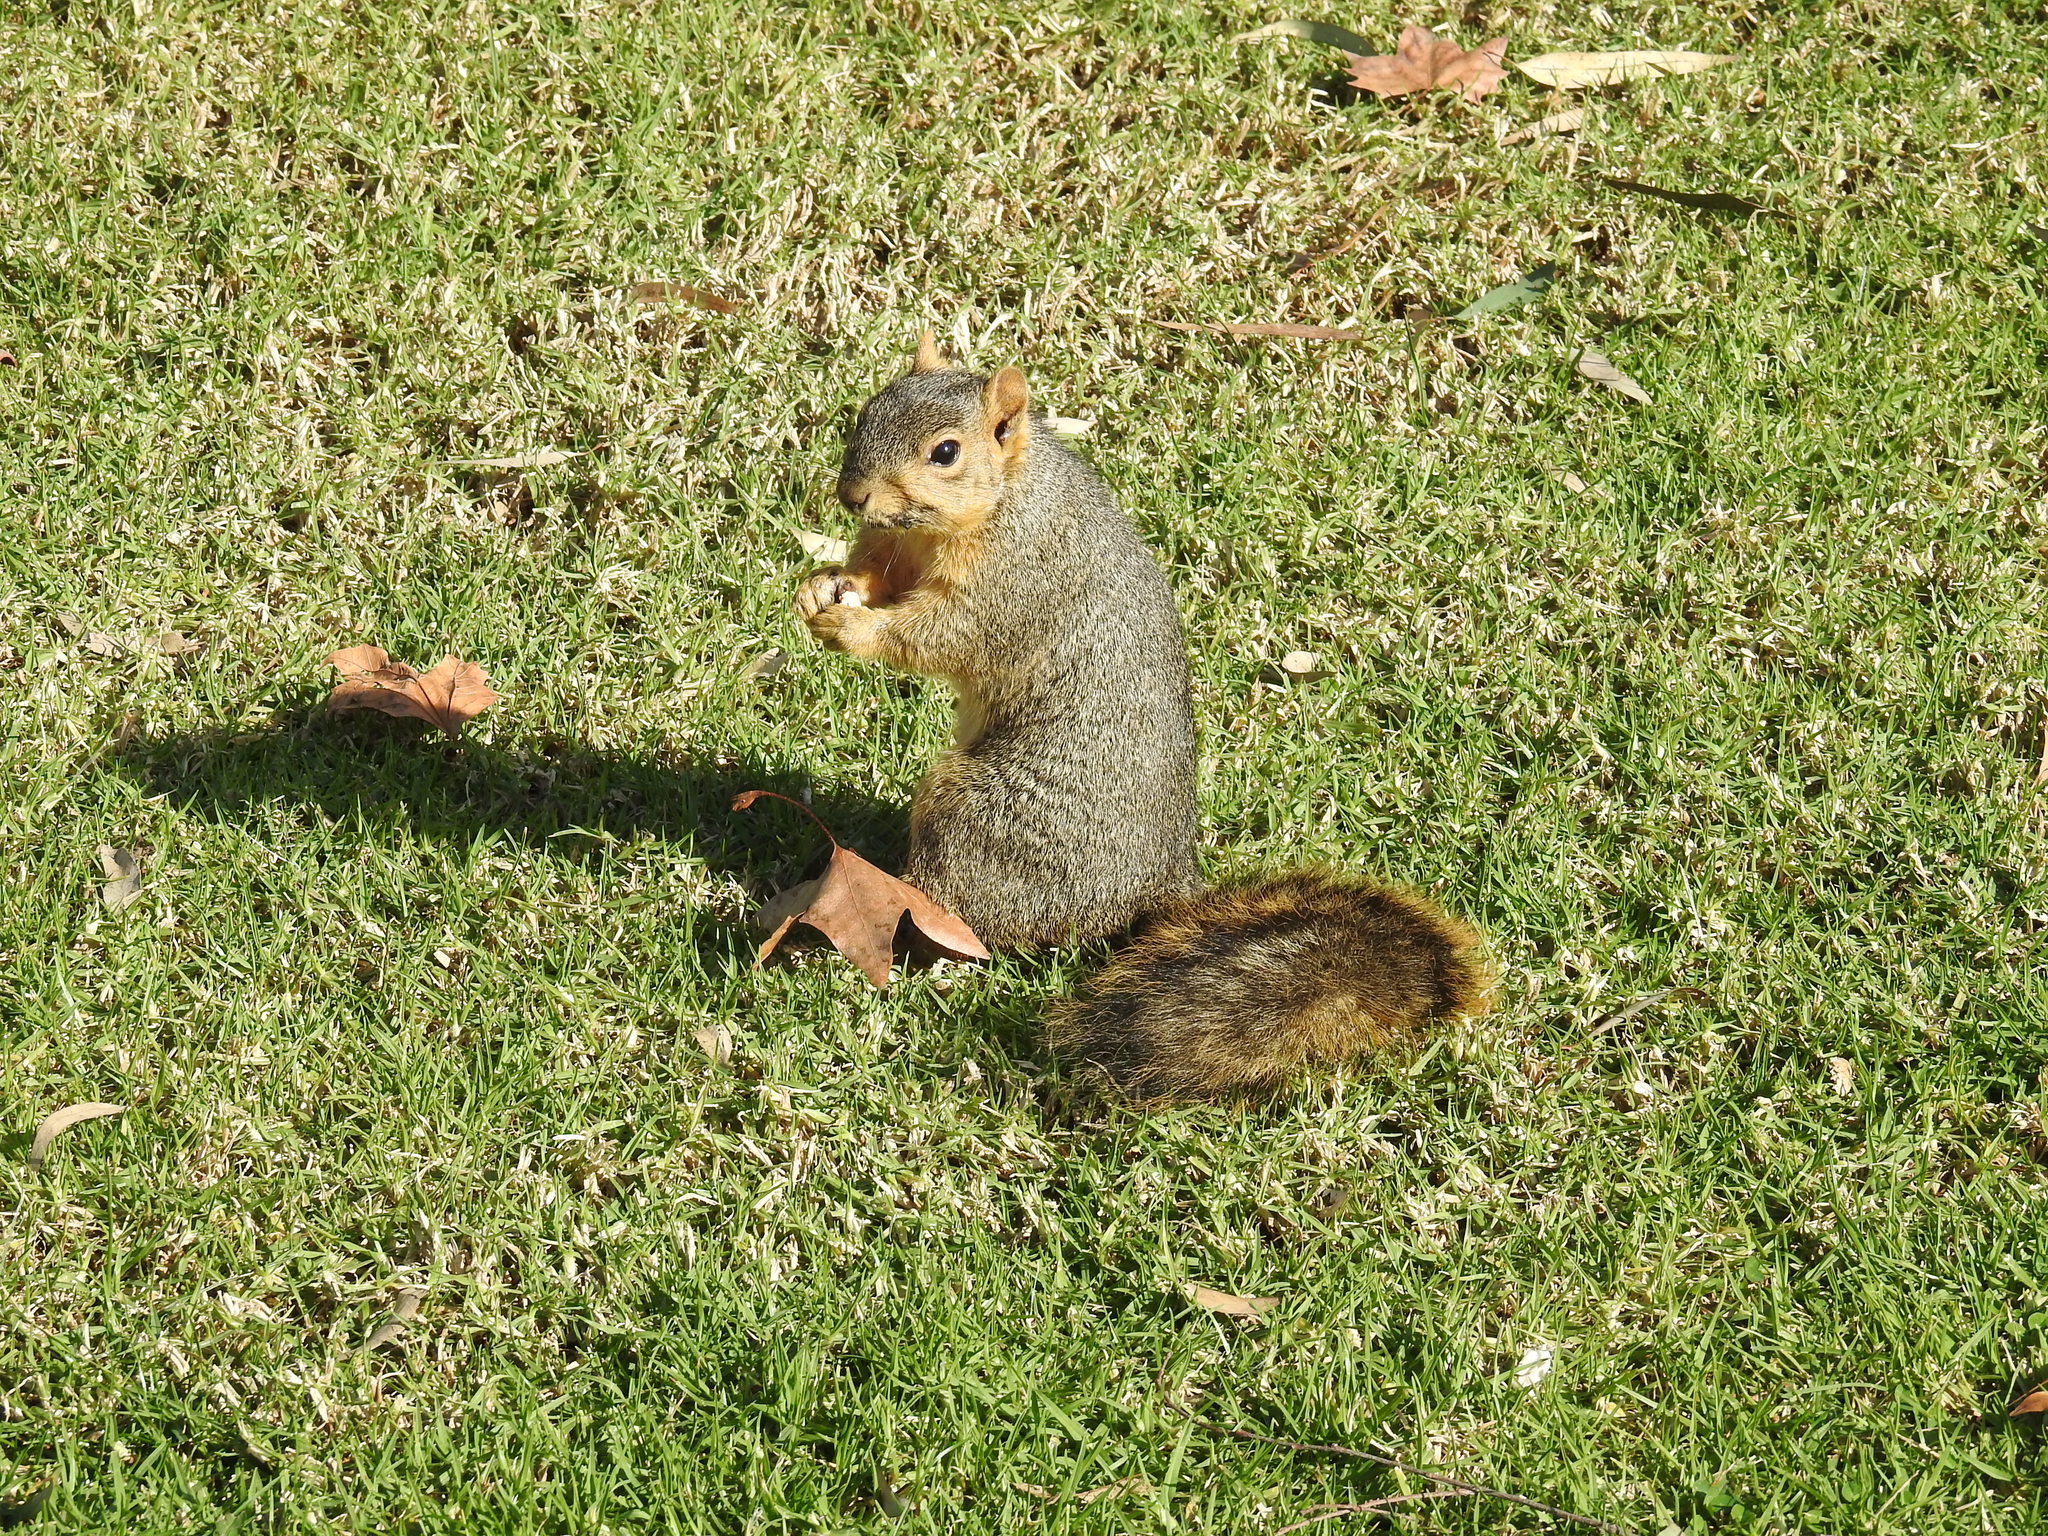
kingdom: Animalia
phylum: Chordata
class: Mammalia
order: Rodentia
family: Sciuridae
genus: Sciurus
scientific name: Sciurus niger
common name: Fox squirrel
